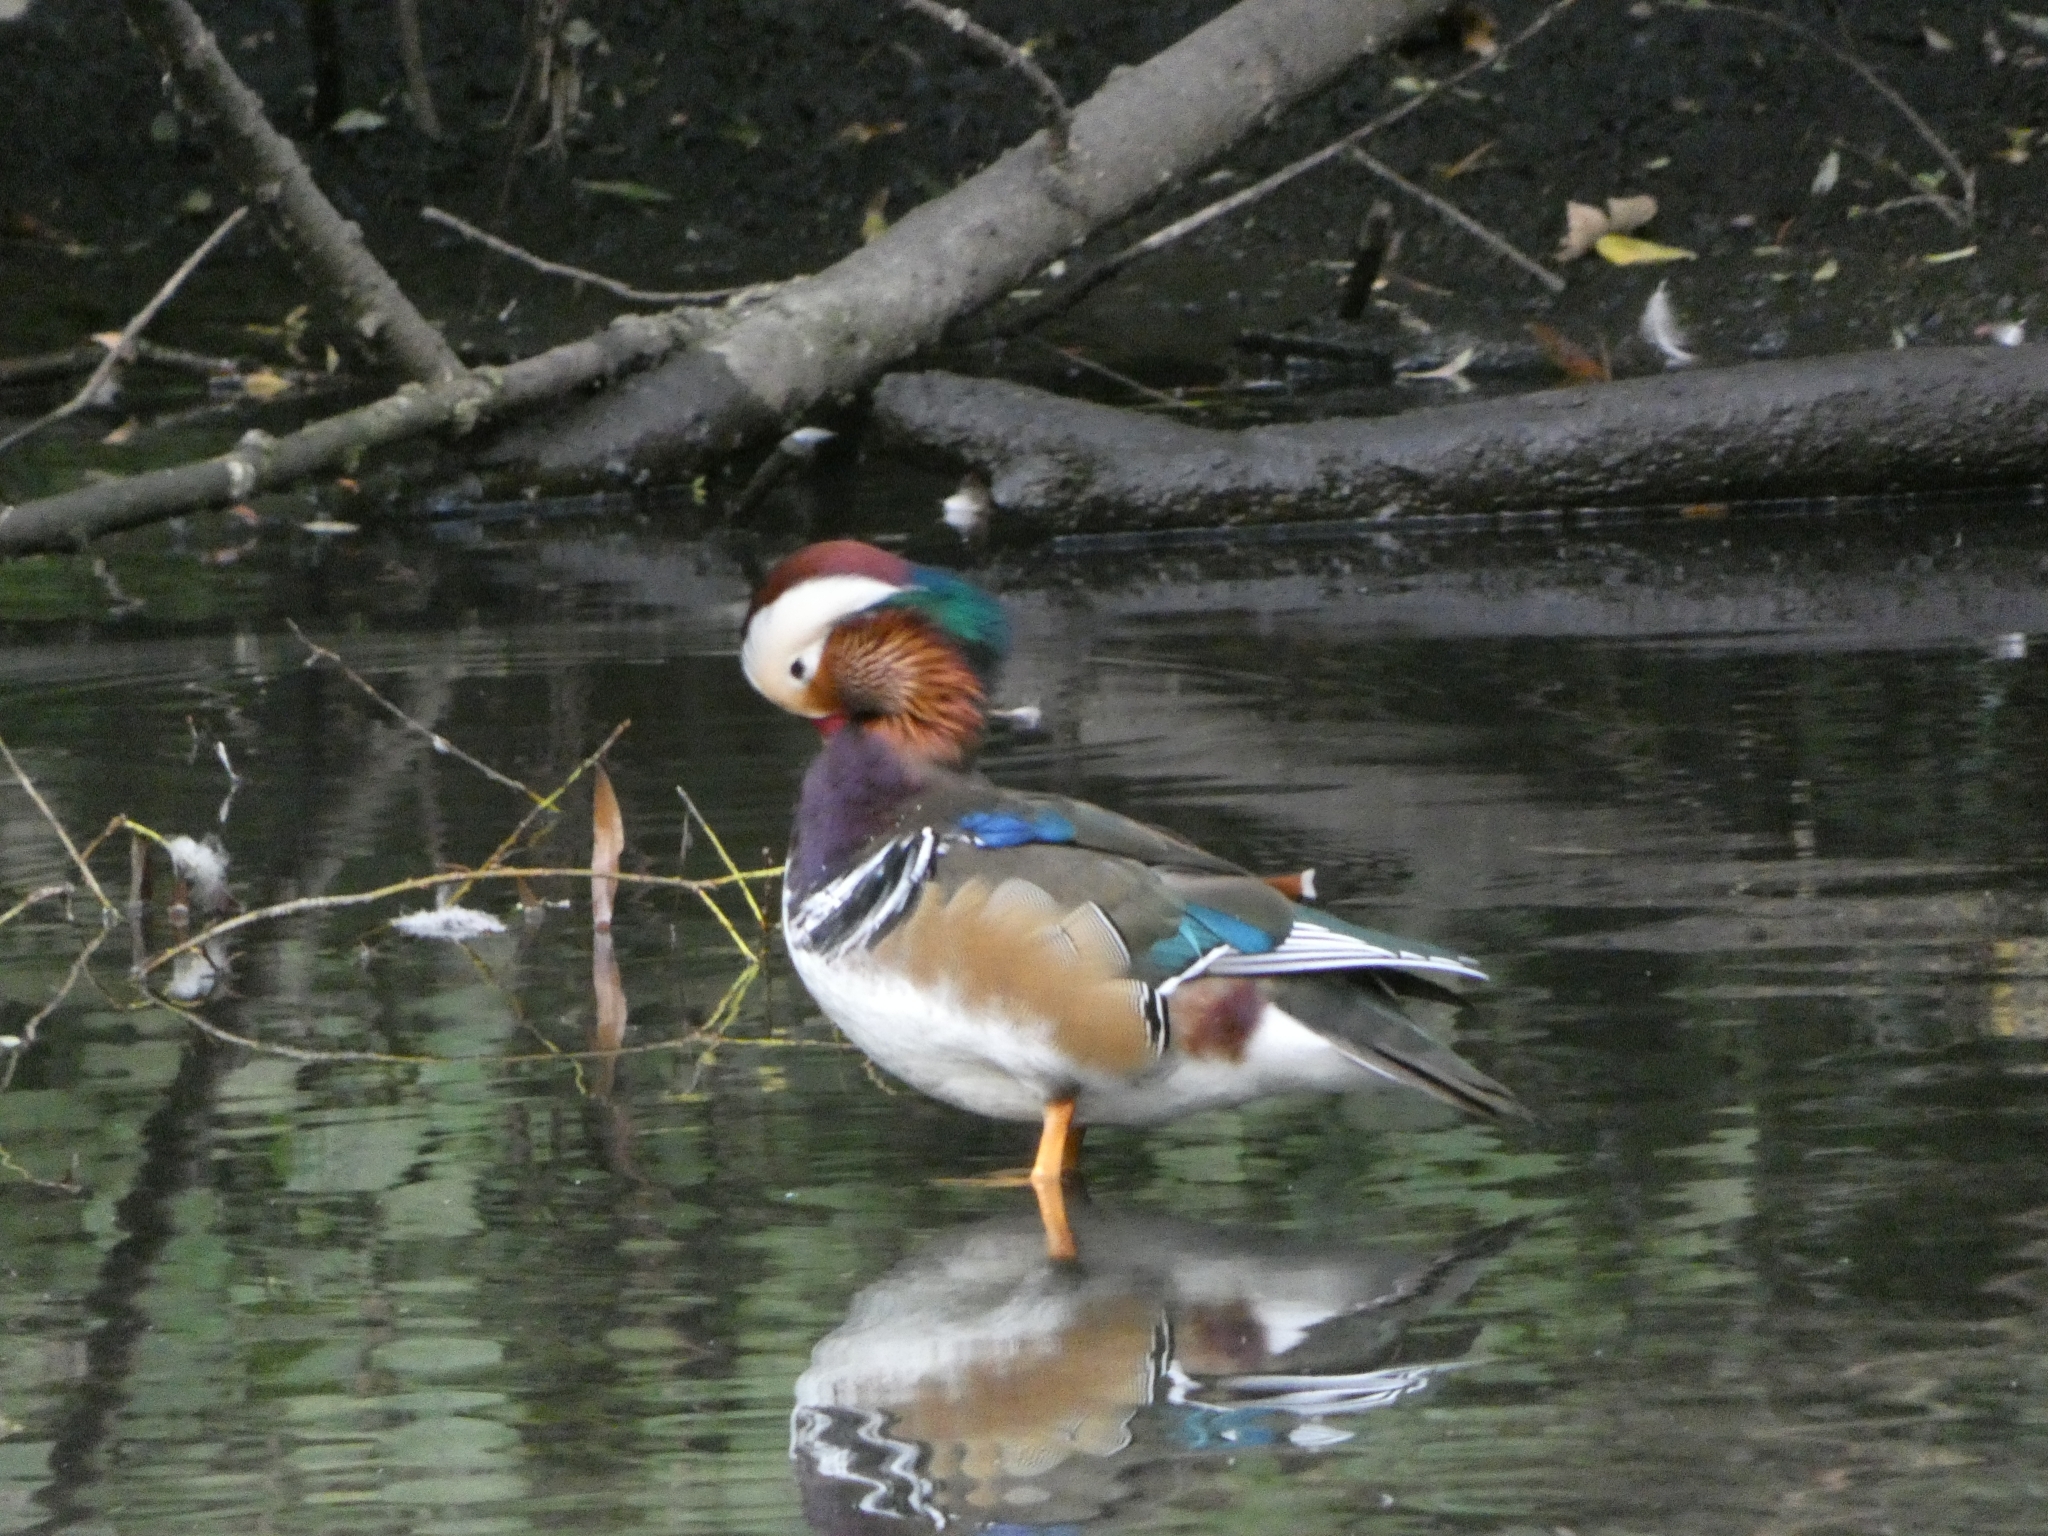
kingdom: Animalia
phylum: Chordata
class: Aves
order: Anseriformes
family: Anatidae
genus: Aix
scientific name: Aix galericulata
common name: Mandarin duck
